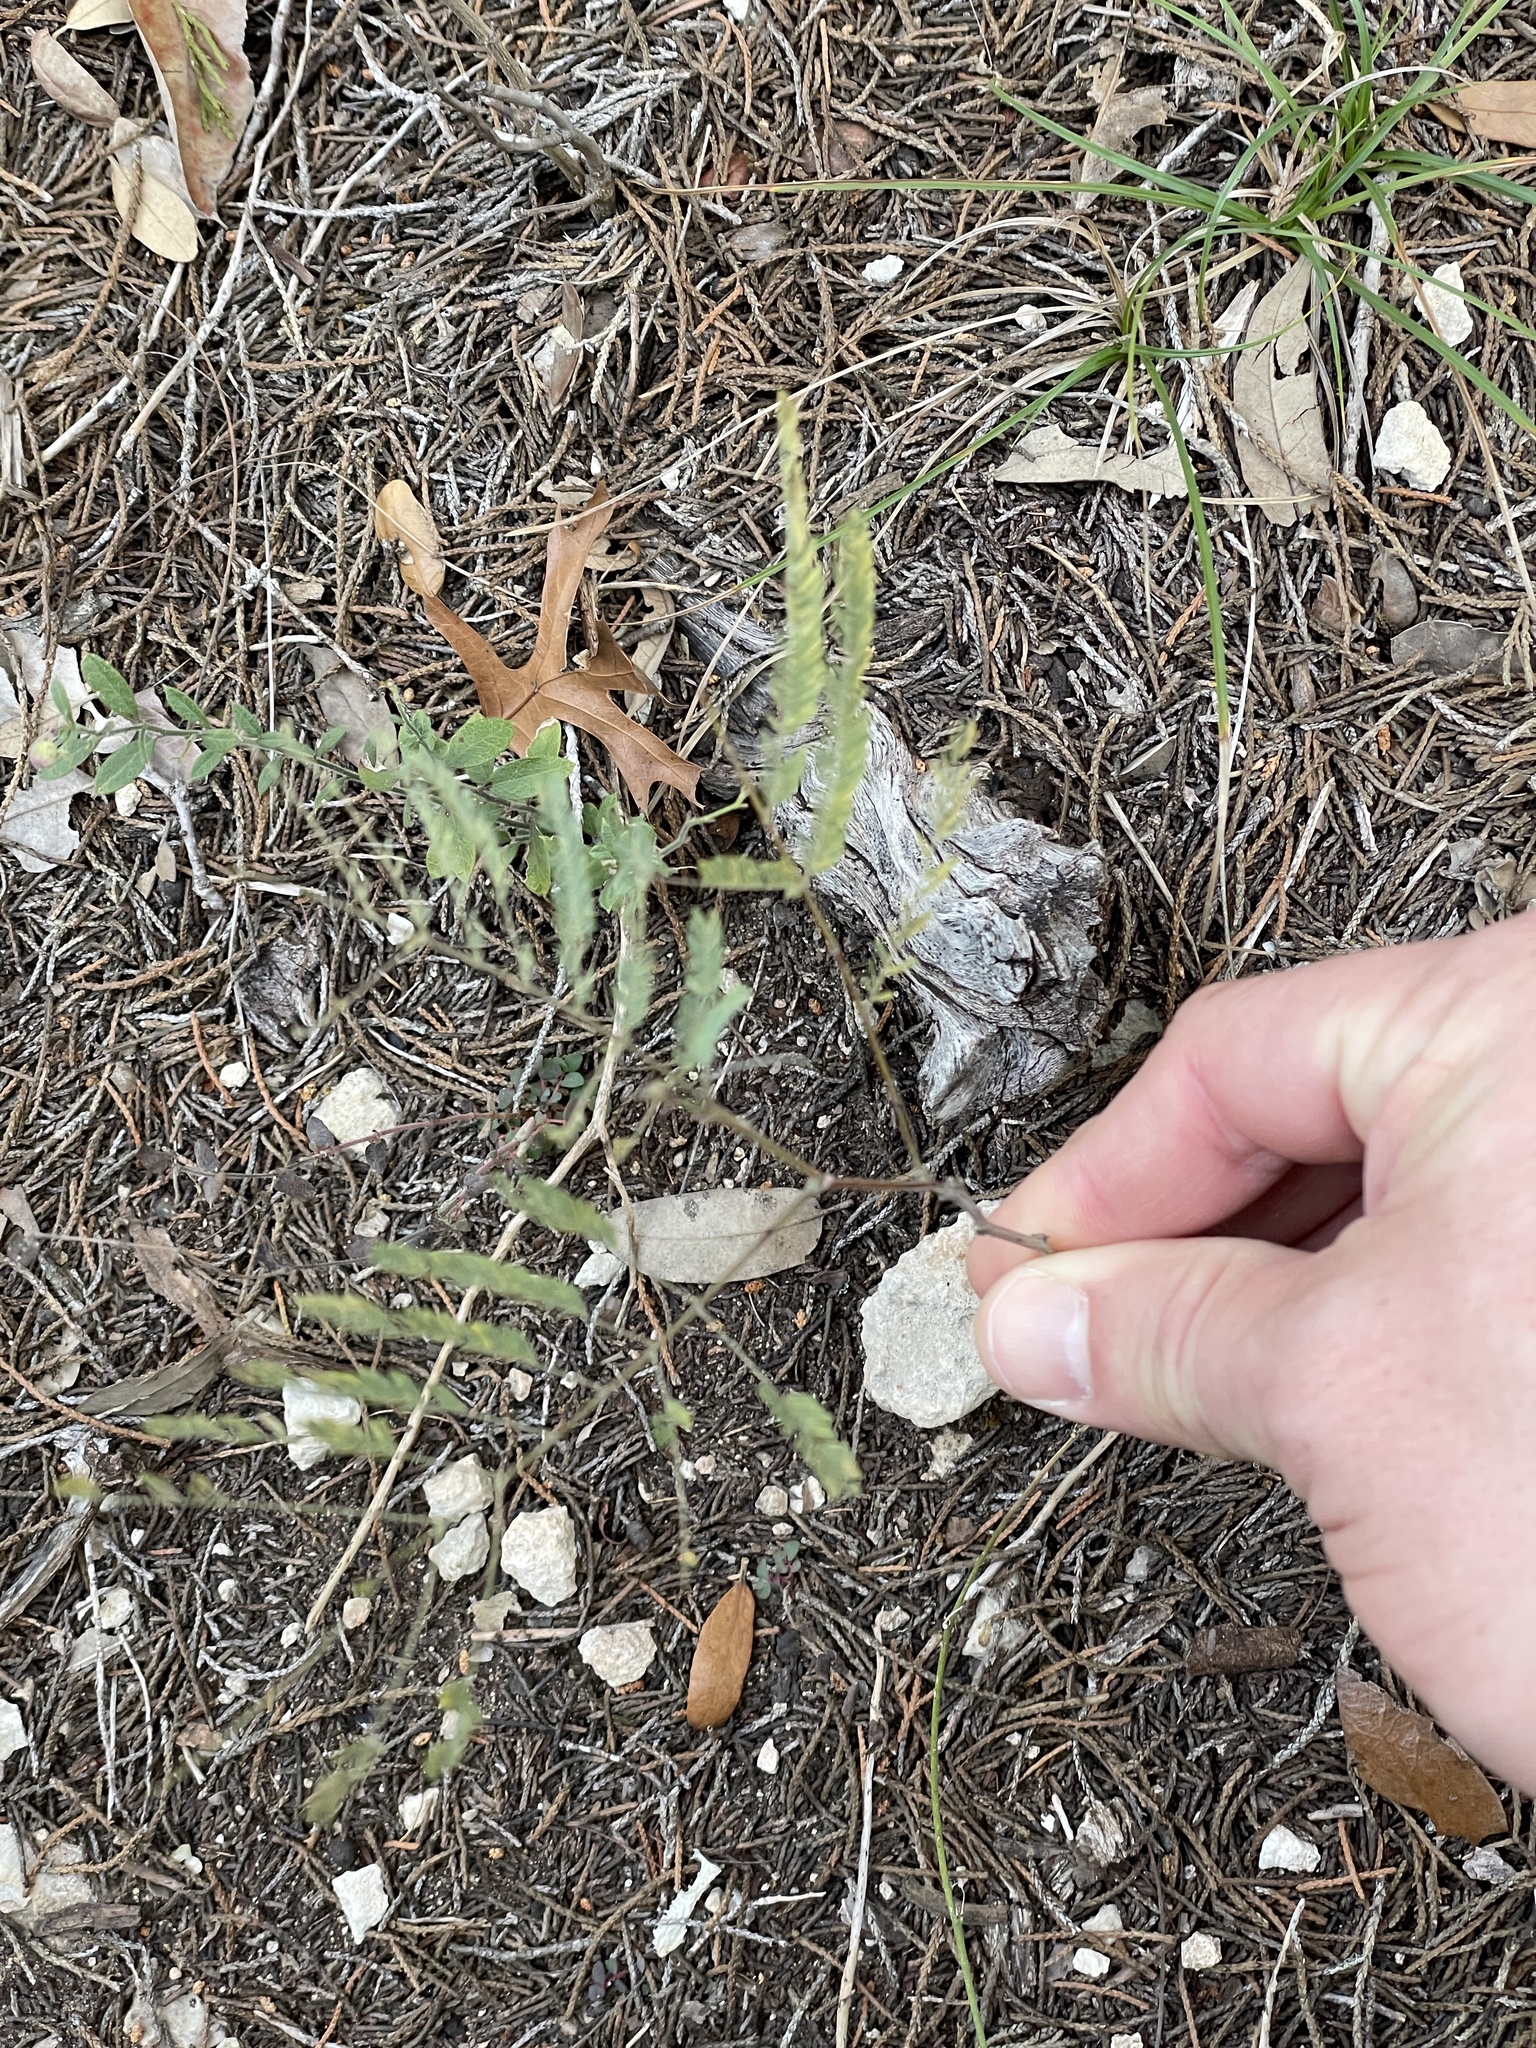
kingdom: Plantae
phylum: Tracheophyta
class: Magnoliopsida
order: Fabales
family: Fabaceae
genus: Senegalia
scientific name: Senegalia berlandieri
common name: Berlandier acacia
